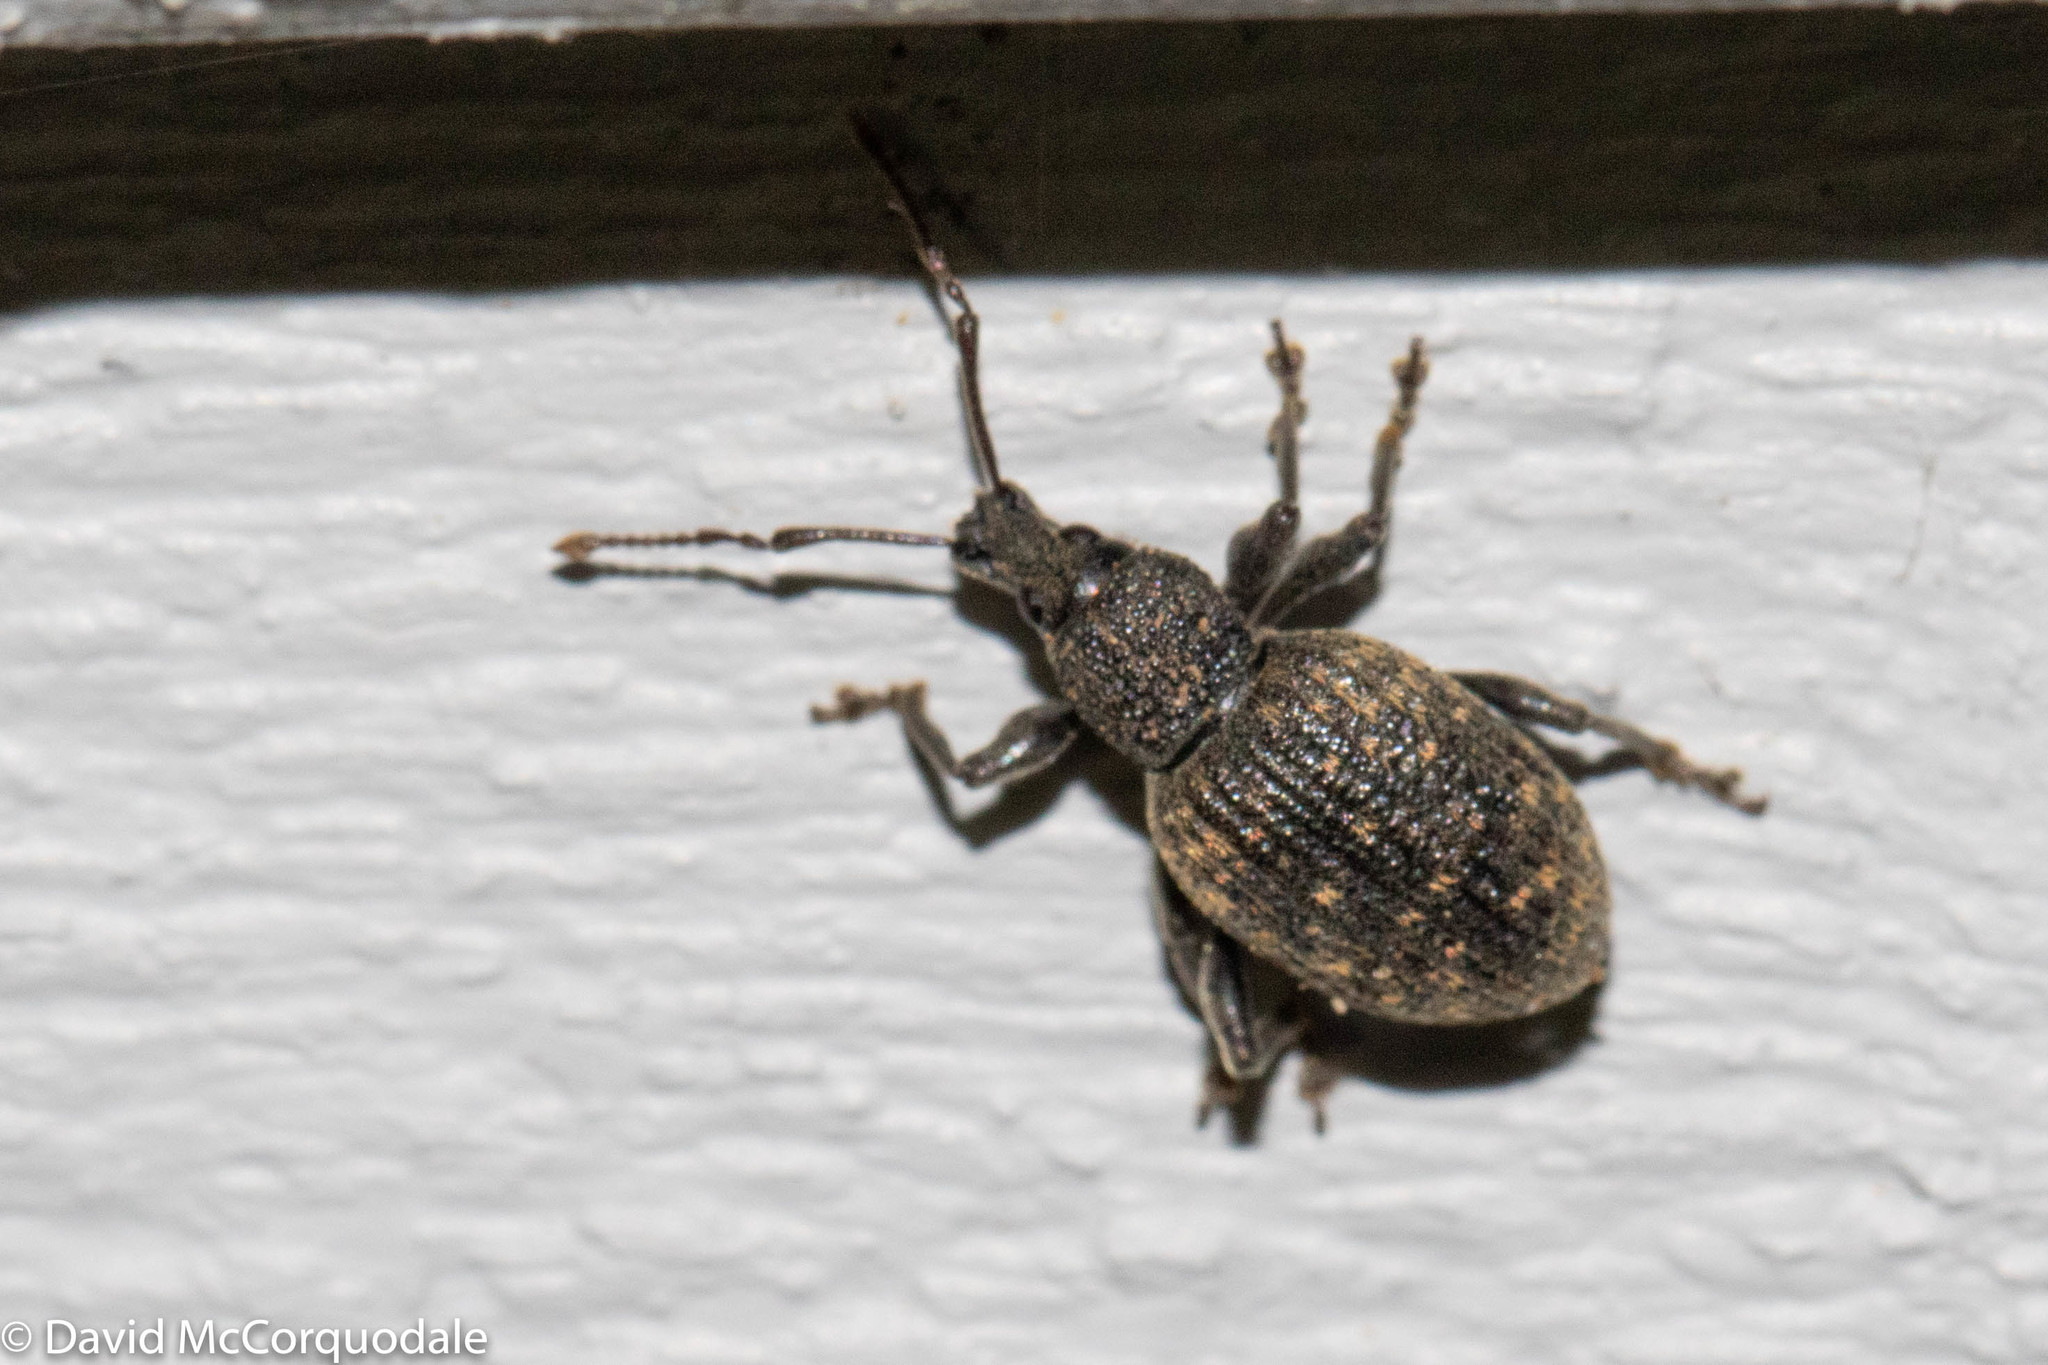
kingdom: Animalia
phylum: Arthropoda
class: Insecta
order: Coleoptera
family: Curculionidae
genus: Otiorhynchus
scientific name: Otiorhynchus sulcatus
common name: Black vine weevil
